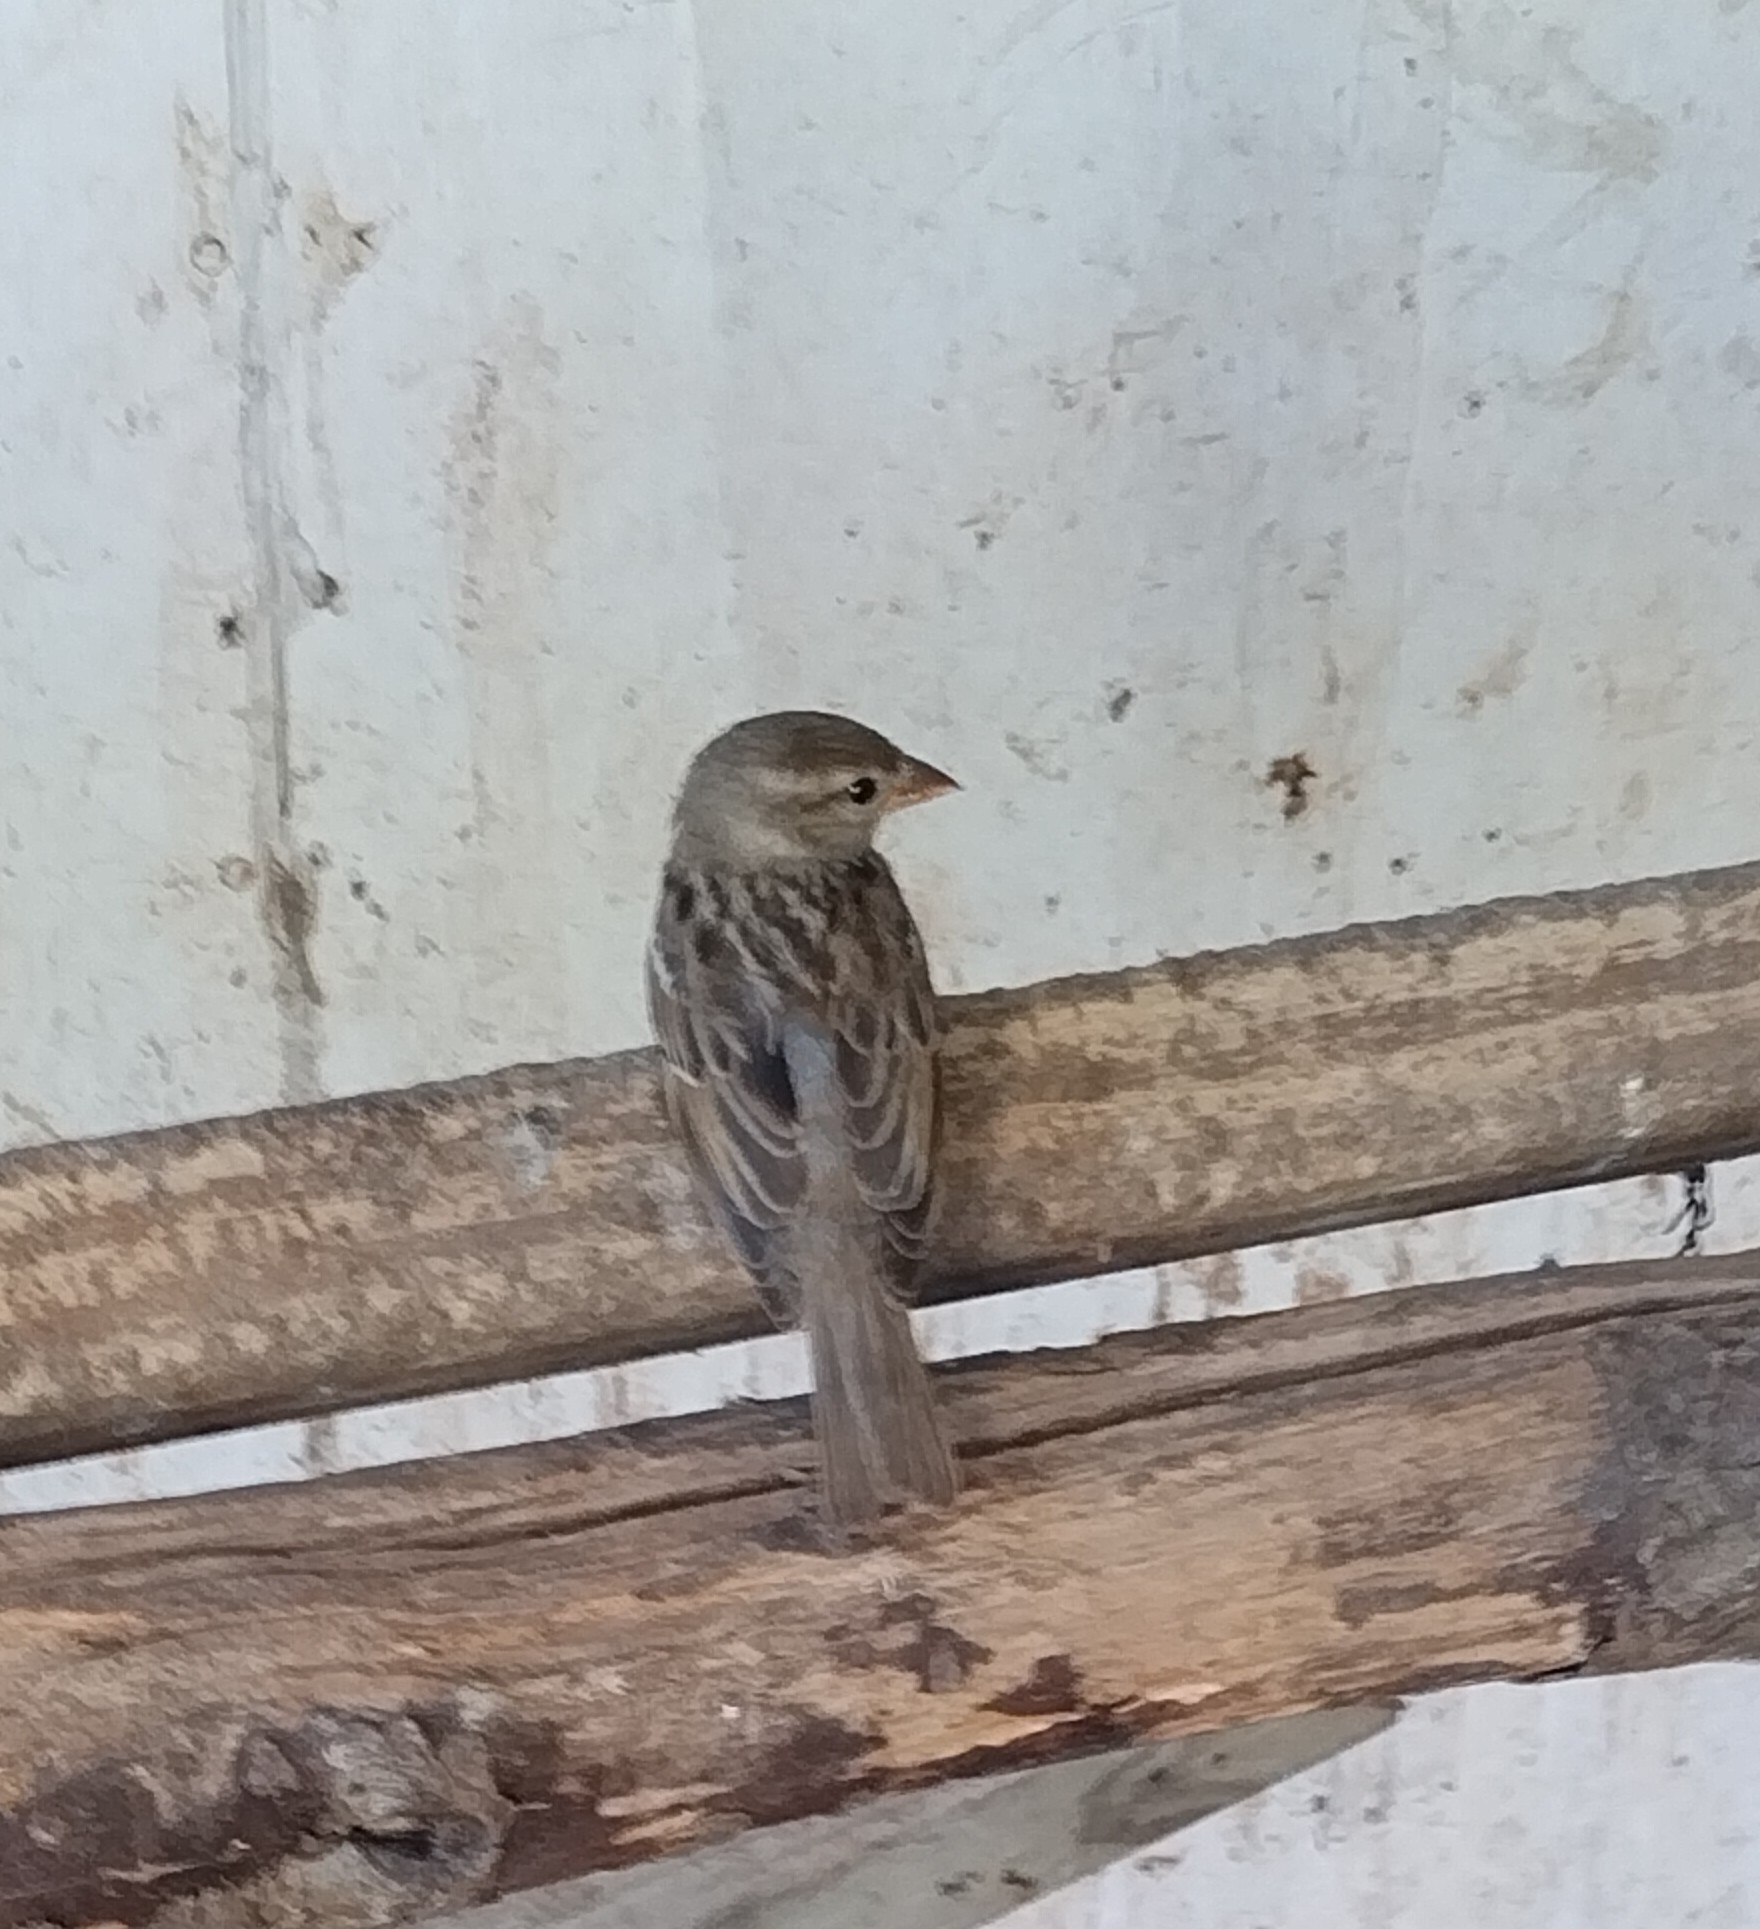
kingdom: Animalia
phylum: Chordata
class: Aves
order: Passeriformes
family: Passeridae
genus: Passer
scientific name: Passer domesticus
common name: House sparrow
